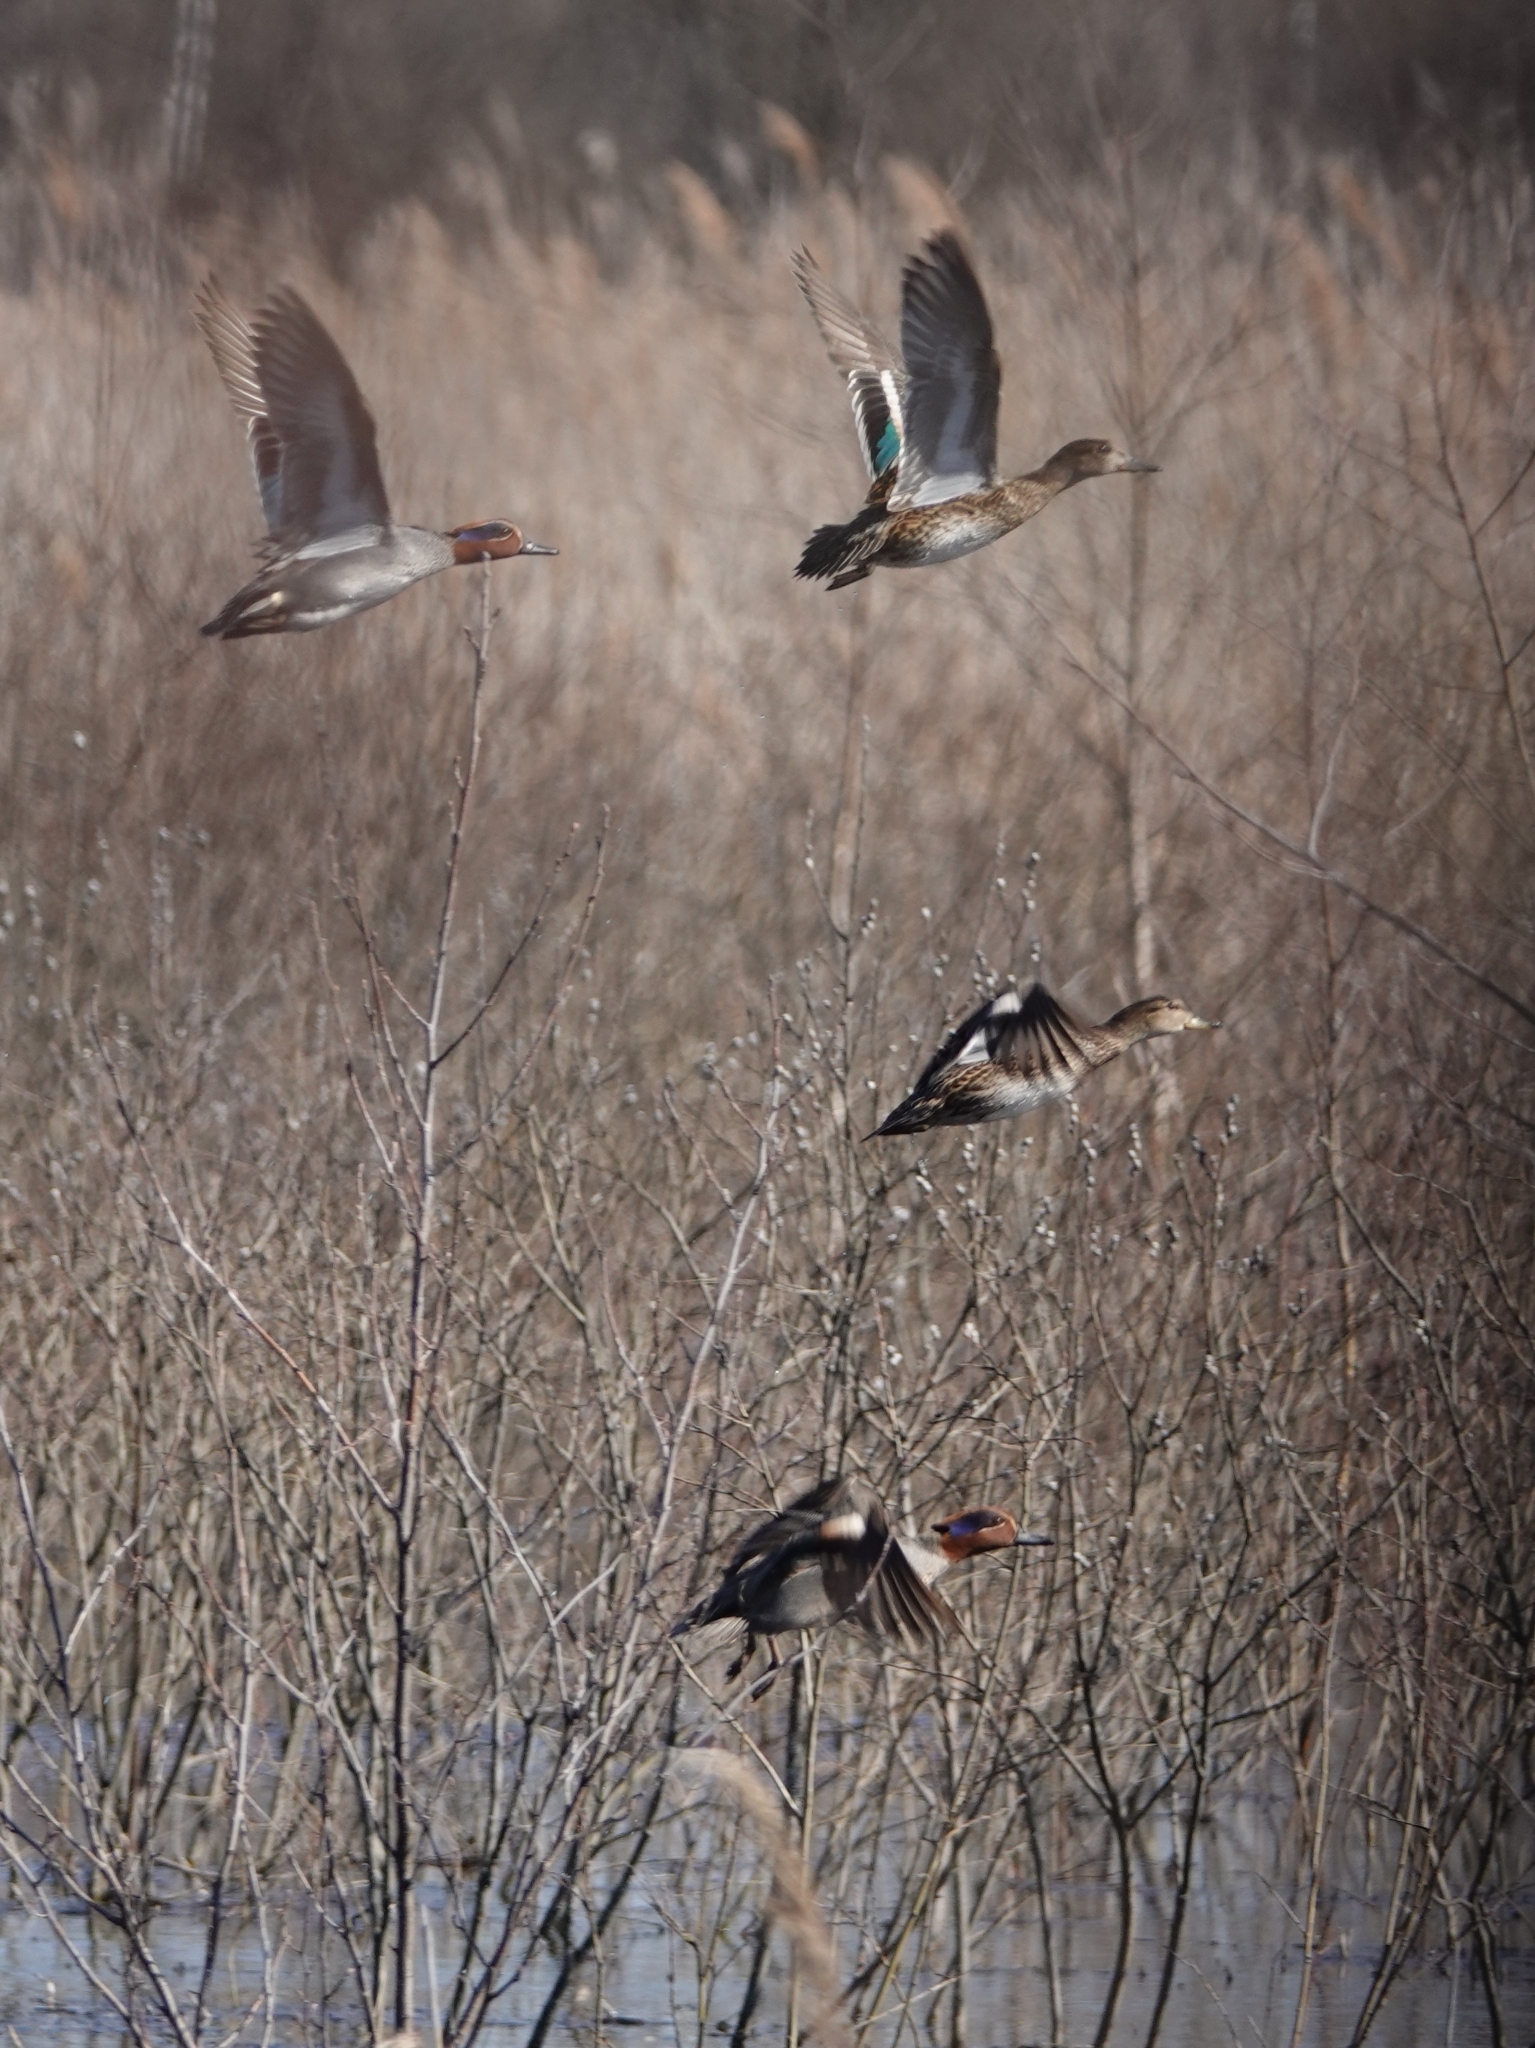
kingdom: Animalia
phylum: Chordata
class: Aves
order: Anseriformes
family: Anatidae
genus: Anas
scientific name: Anas crecca
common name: Eurasian teal
